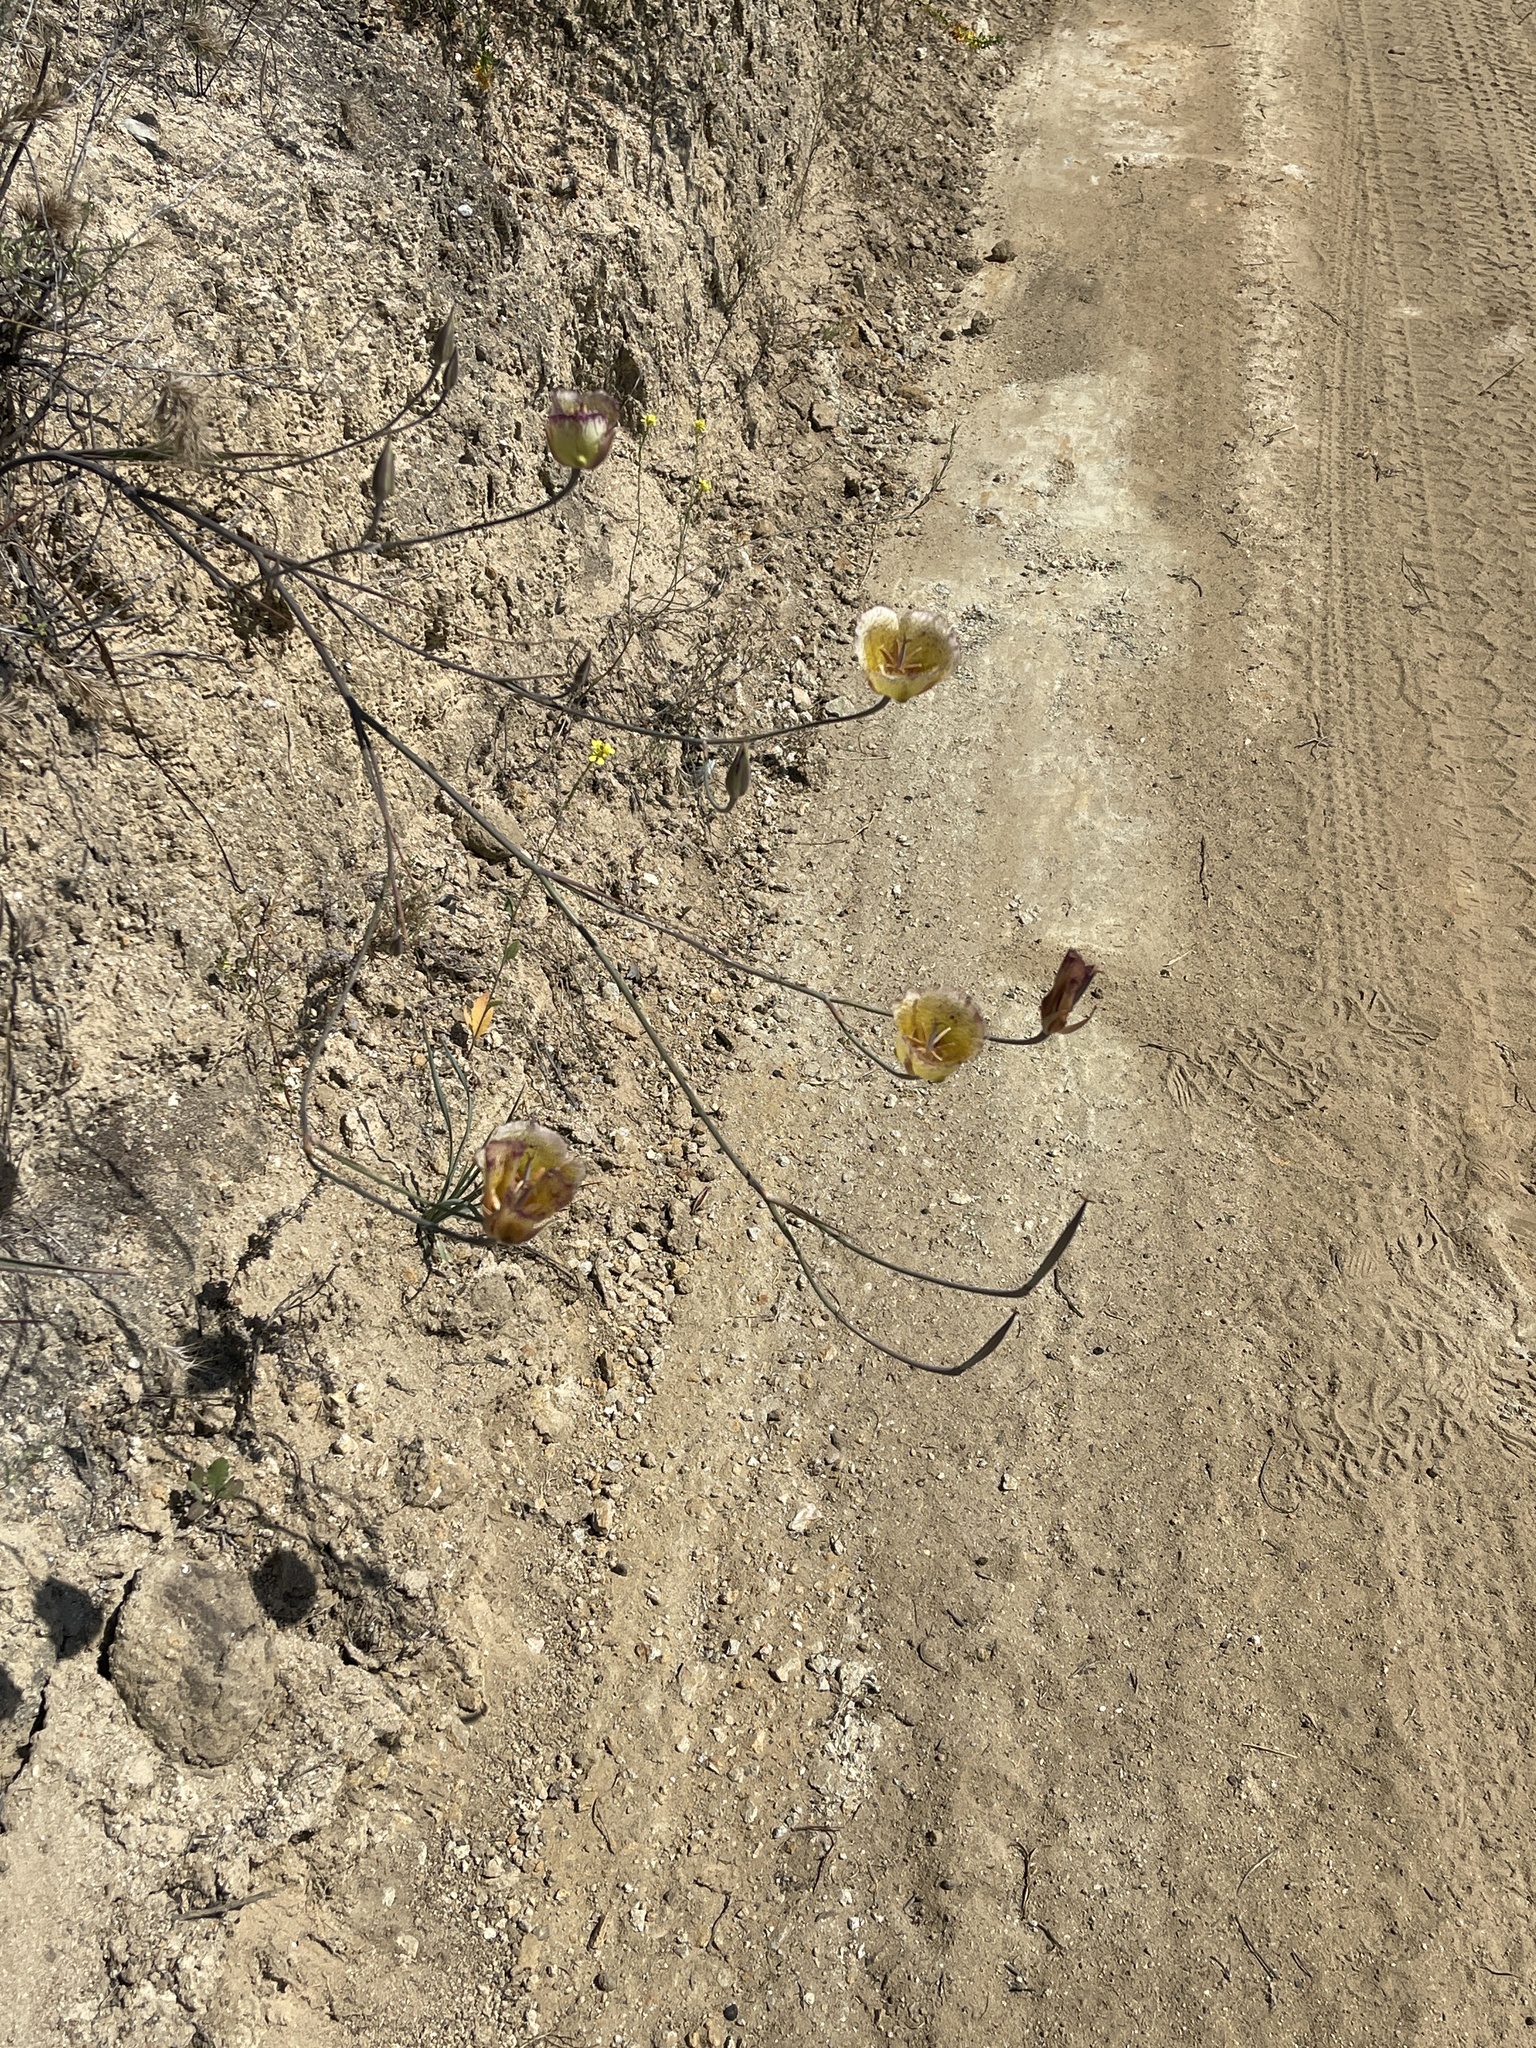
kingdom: Plantae
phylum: Tracheophyta
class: Liliopsida
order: Liliales
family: Liliaceae
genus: Calochortus
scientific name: Calochortus weedii
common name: Weed's mariposa-lily
